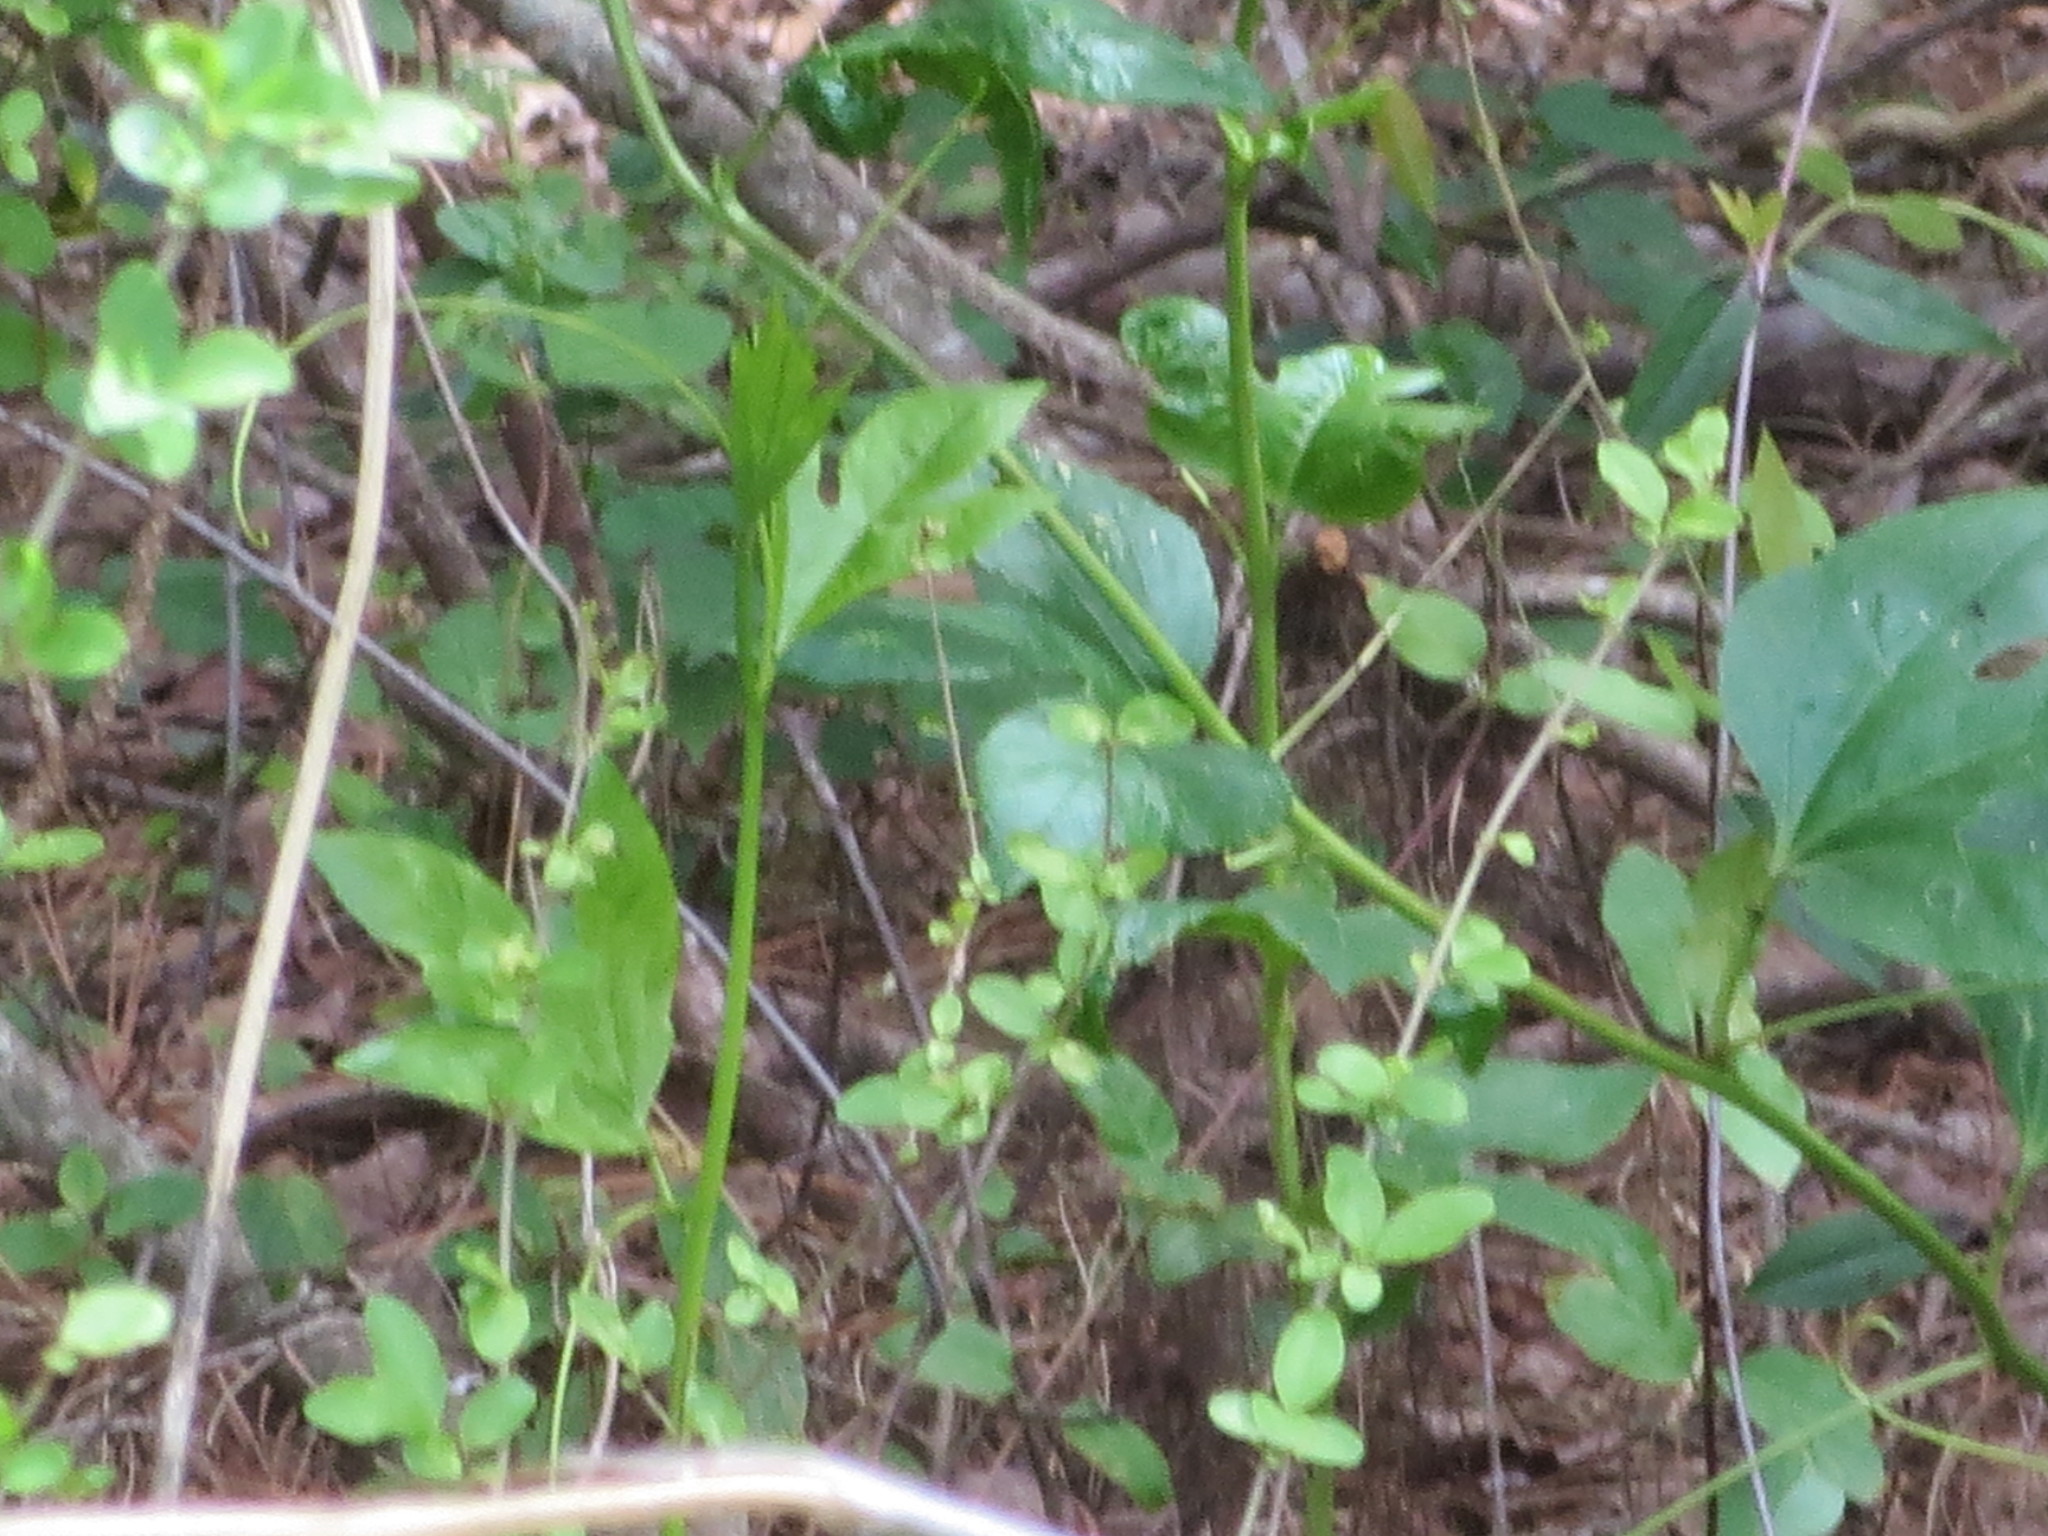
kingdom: Plantae
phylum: Tracheophyta
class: Magnoliopsida
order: Malpighiales
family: Passifloraceae
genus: Passiflora
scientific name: Passiflora incarnata
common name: Apricot-vine
